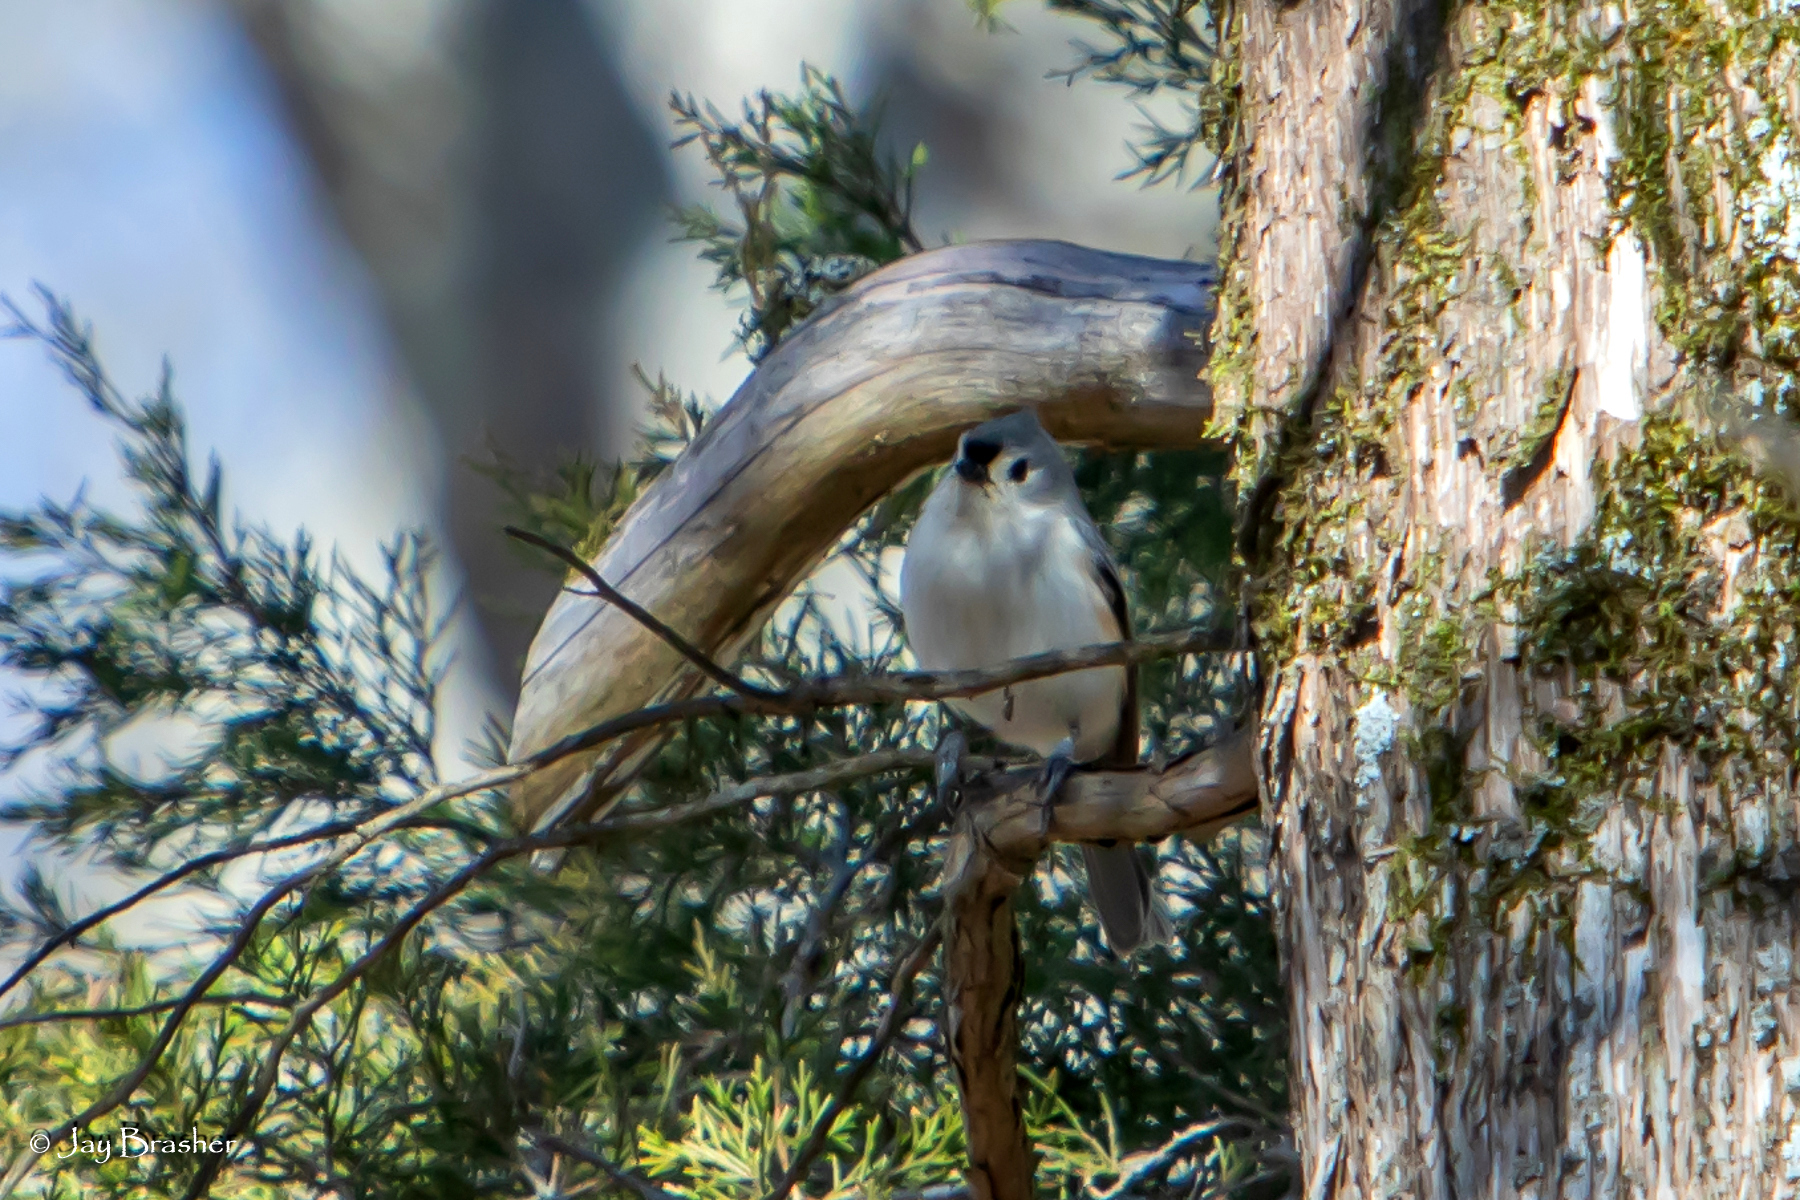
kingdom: Animalia
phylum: Chordata
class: Aves
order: Passeriformes
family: Paridae
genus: Baeolophus
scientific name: Baeolophus bicolor
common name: Tufted titmouse
